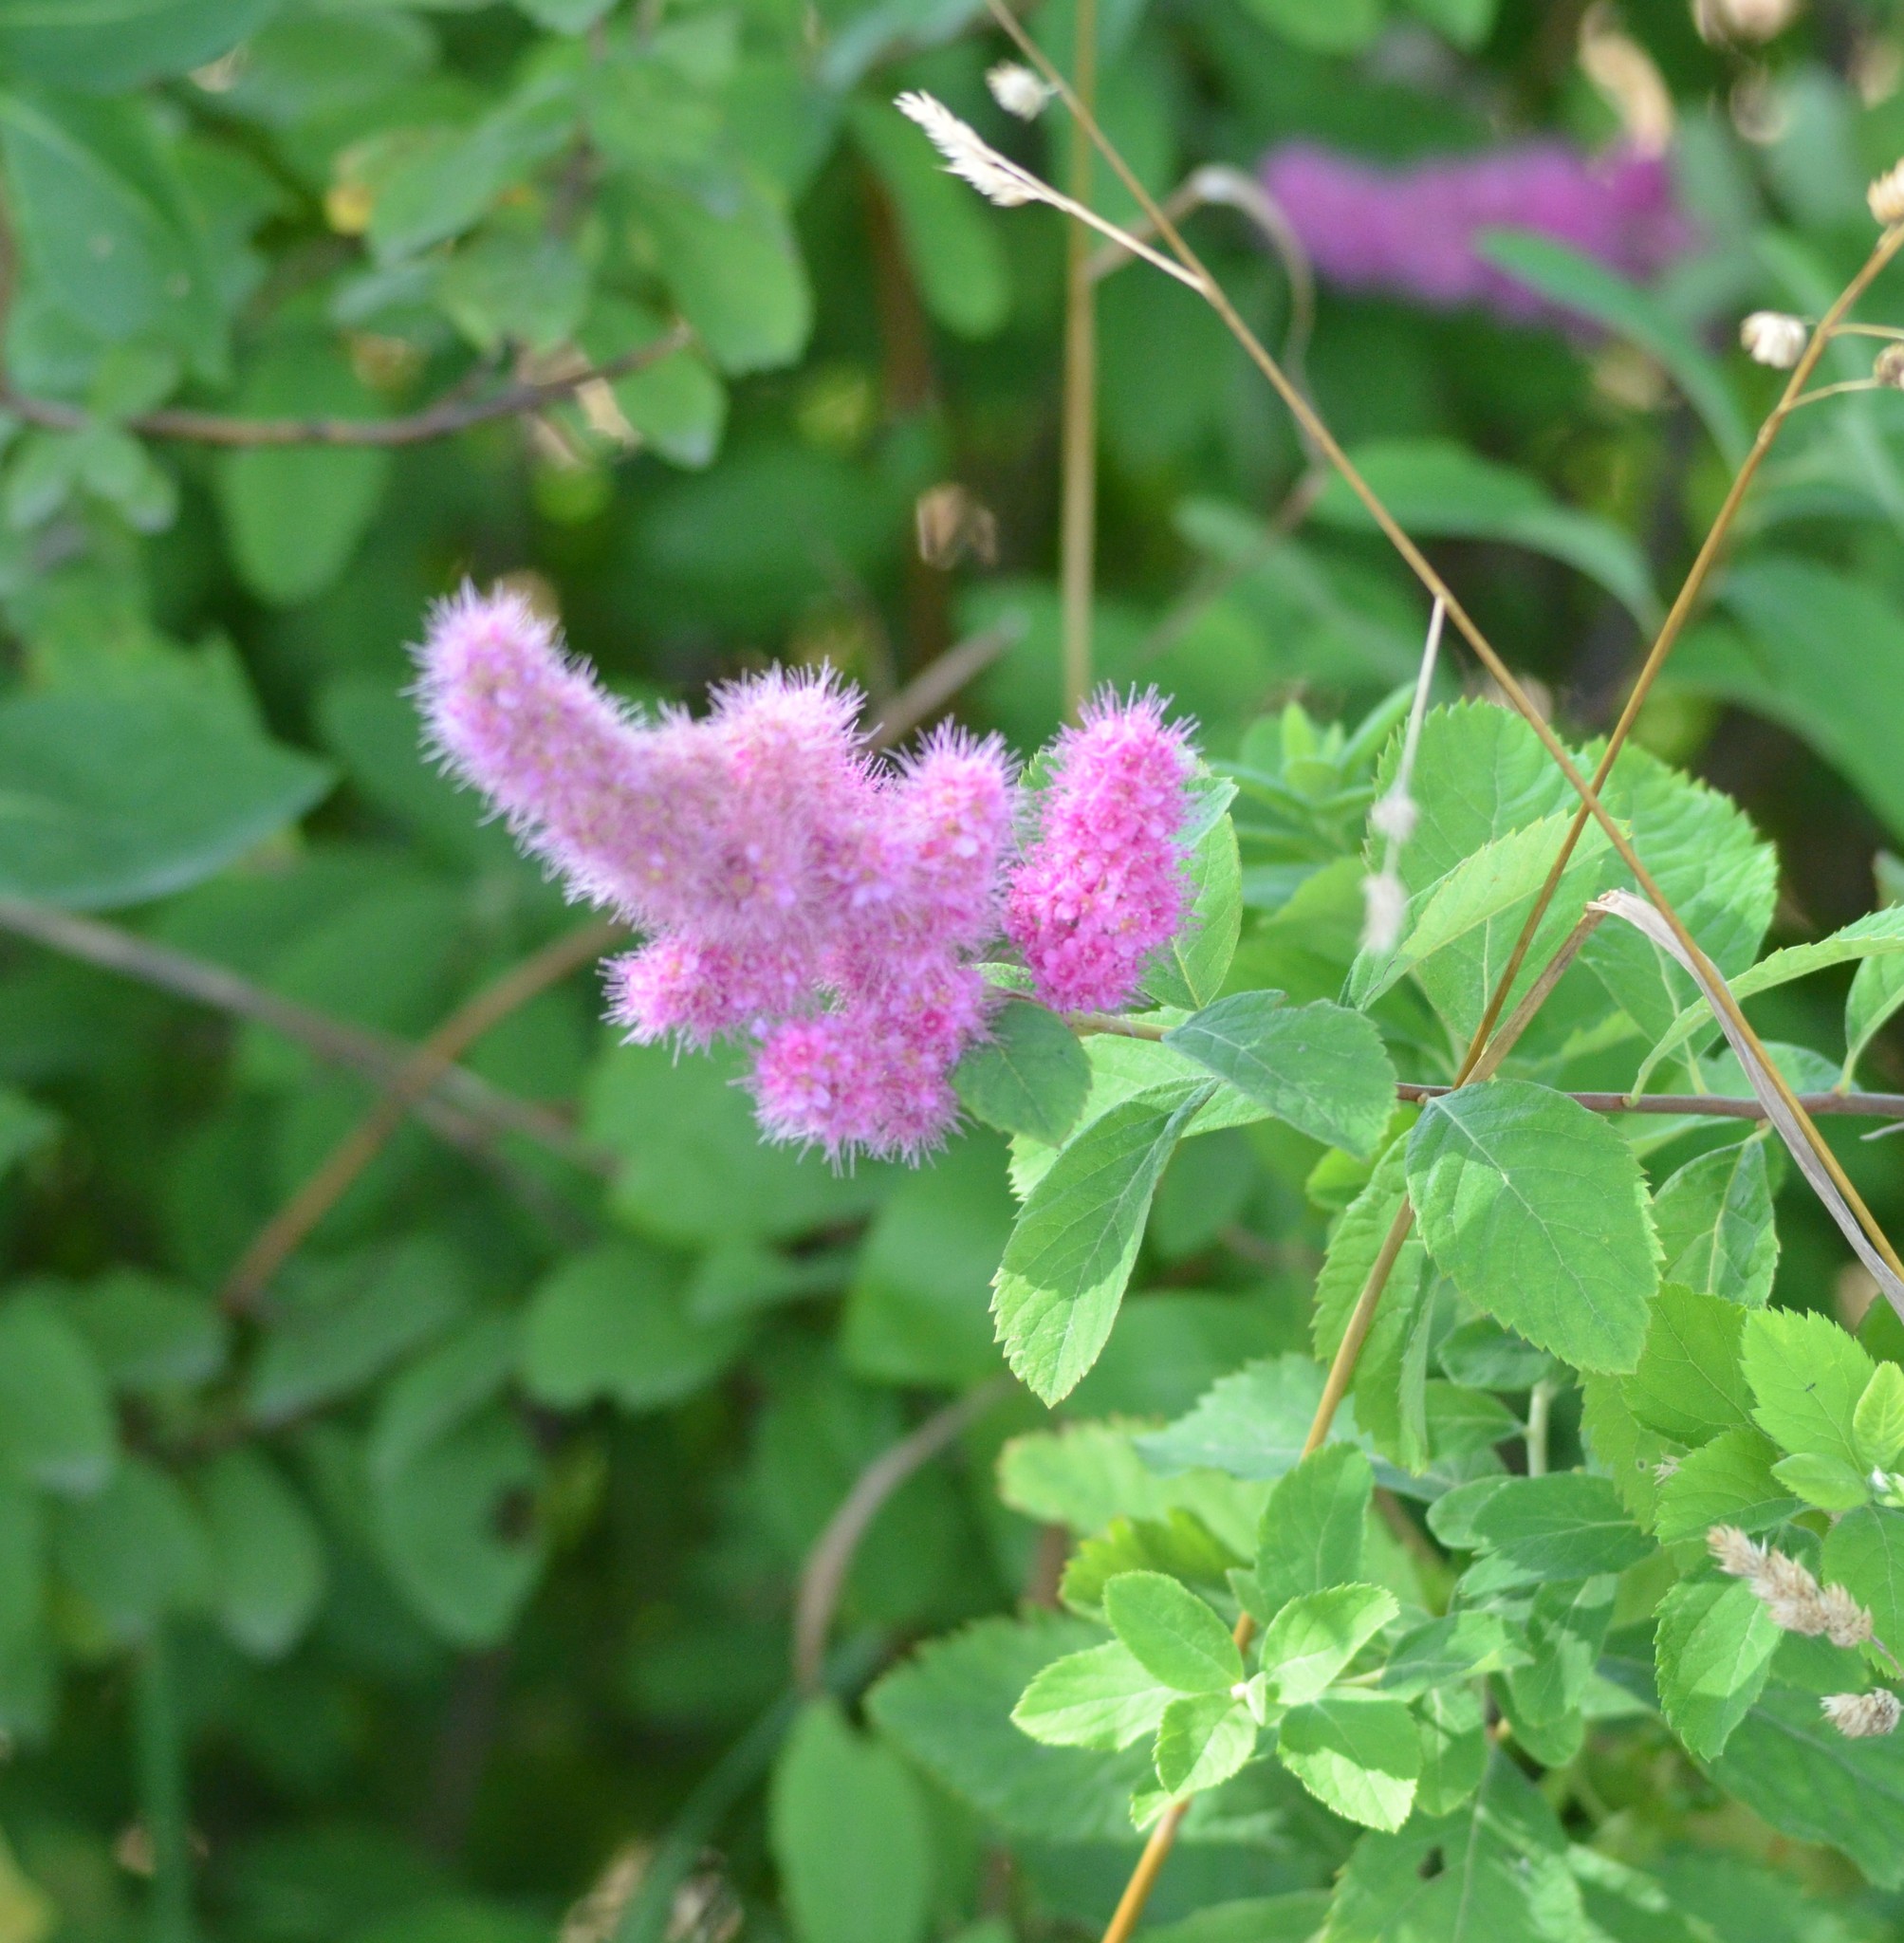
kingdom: Plantae
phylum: Tracheophyta
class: Magnoliopsida
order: Rosales
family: Rosaceae
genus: Spiraea
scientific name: Spiraea douglasii
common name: Steeplebush
